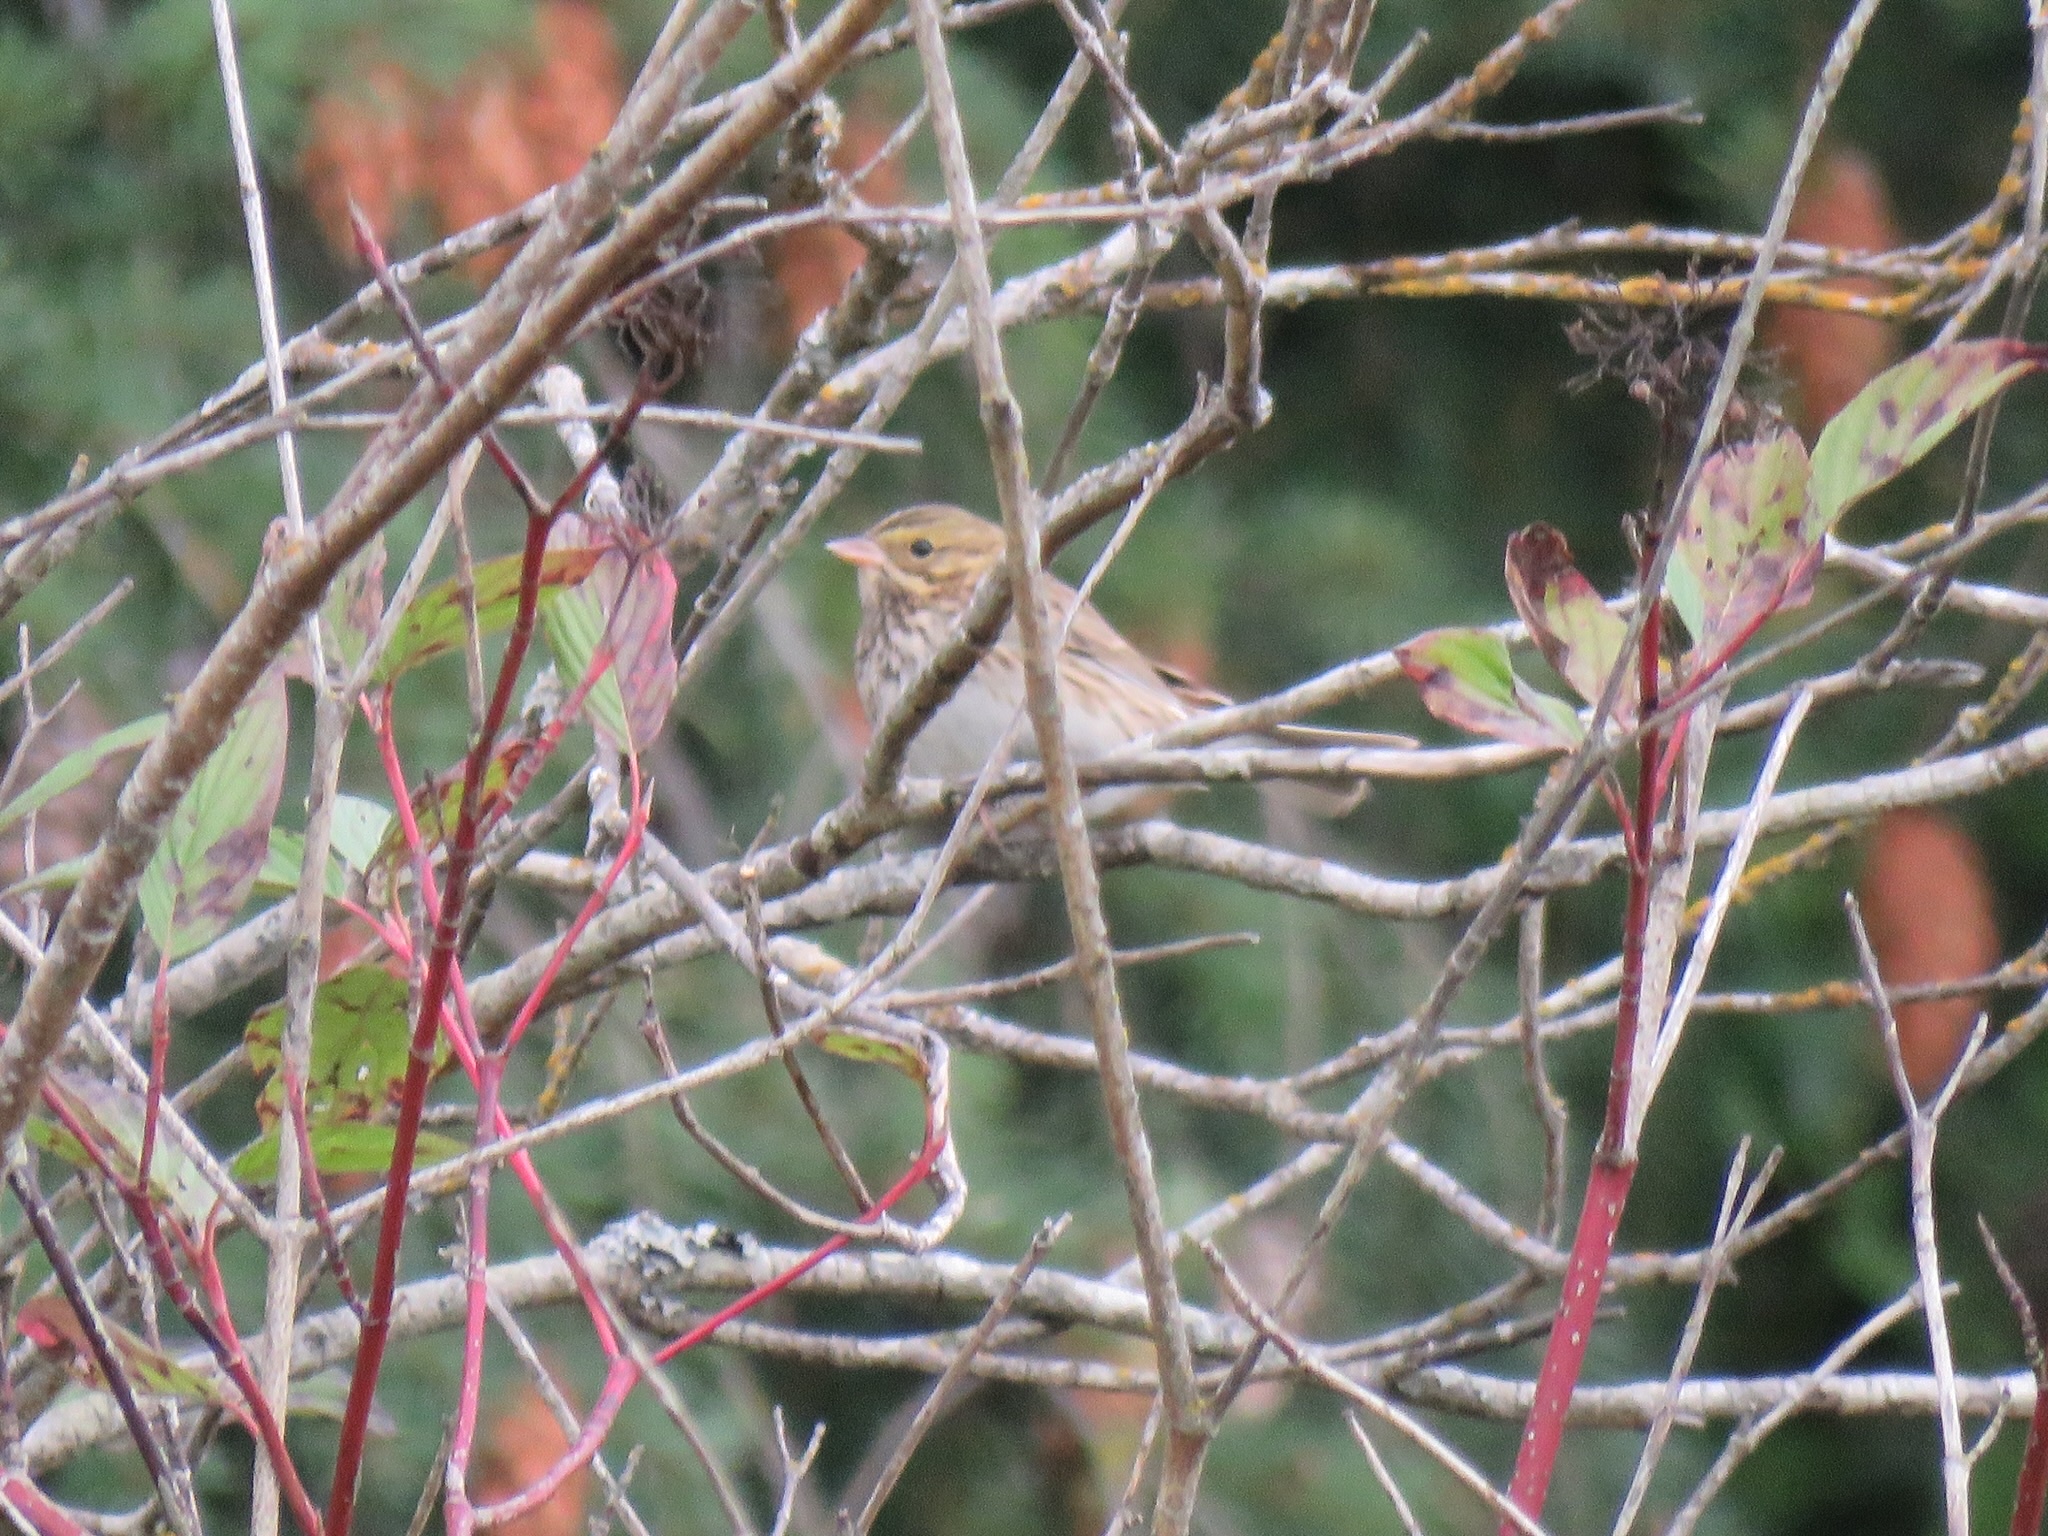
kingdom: Animalia
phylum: Chordata
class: Aves
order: Passeriformes
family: Passerellidae
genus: Passerculus
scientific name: Passerculus sandwichensis
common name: Savannah sparrow
